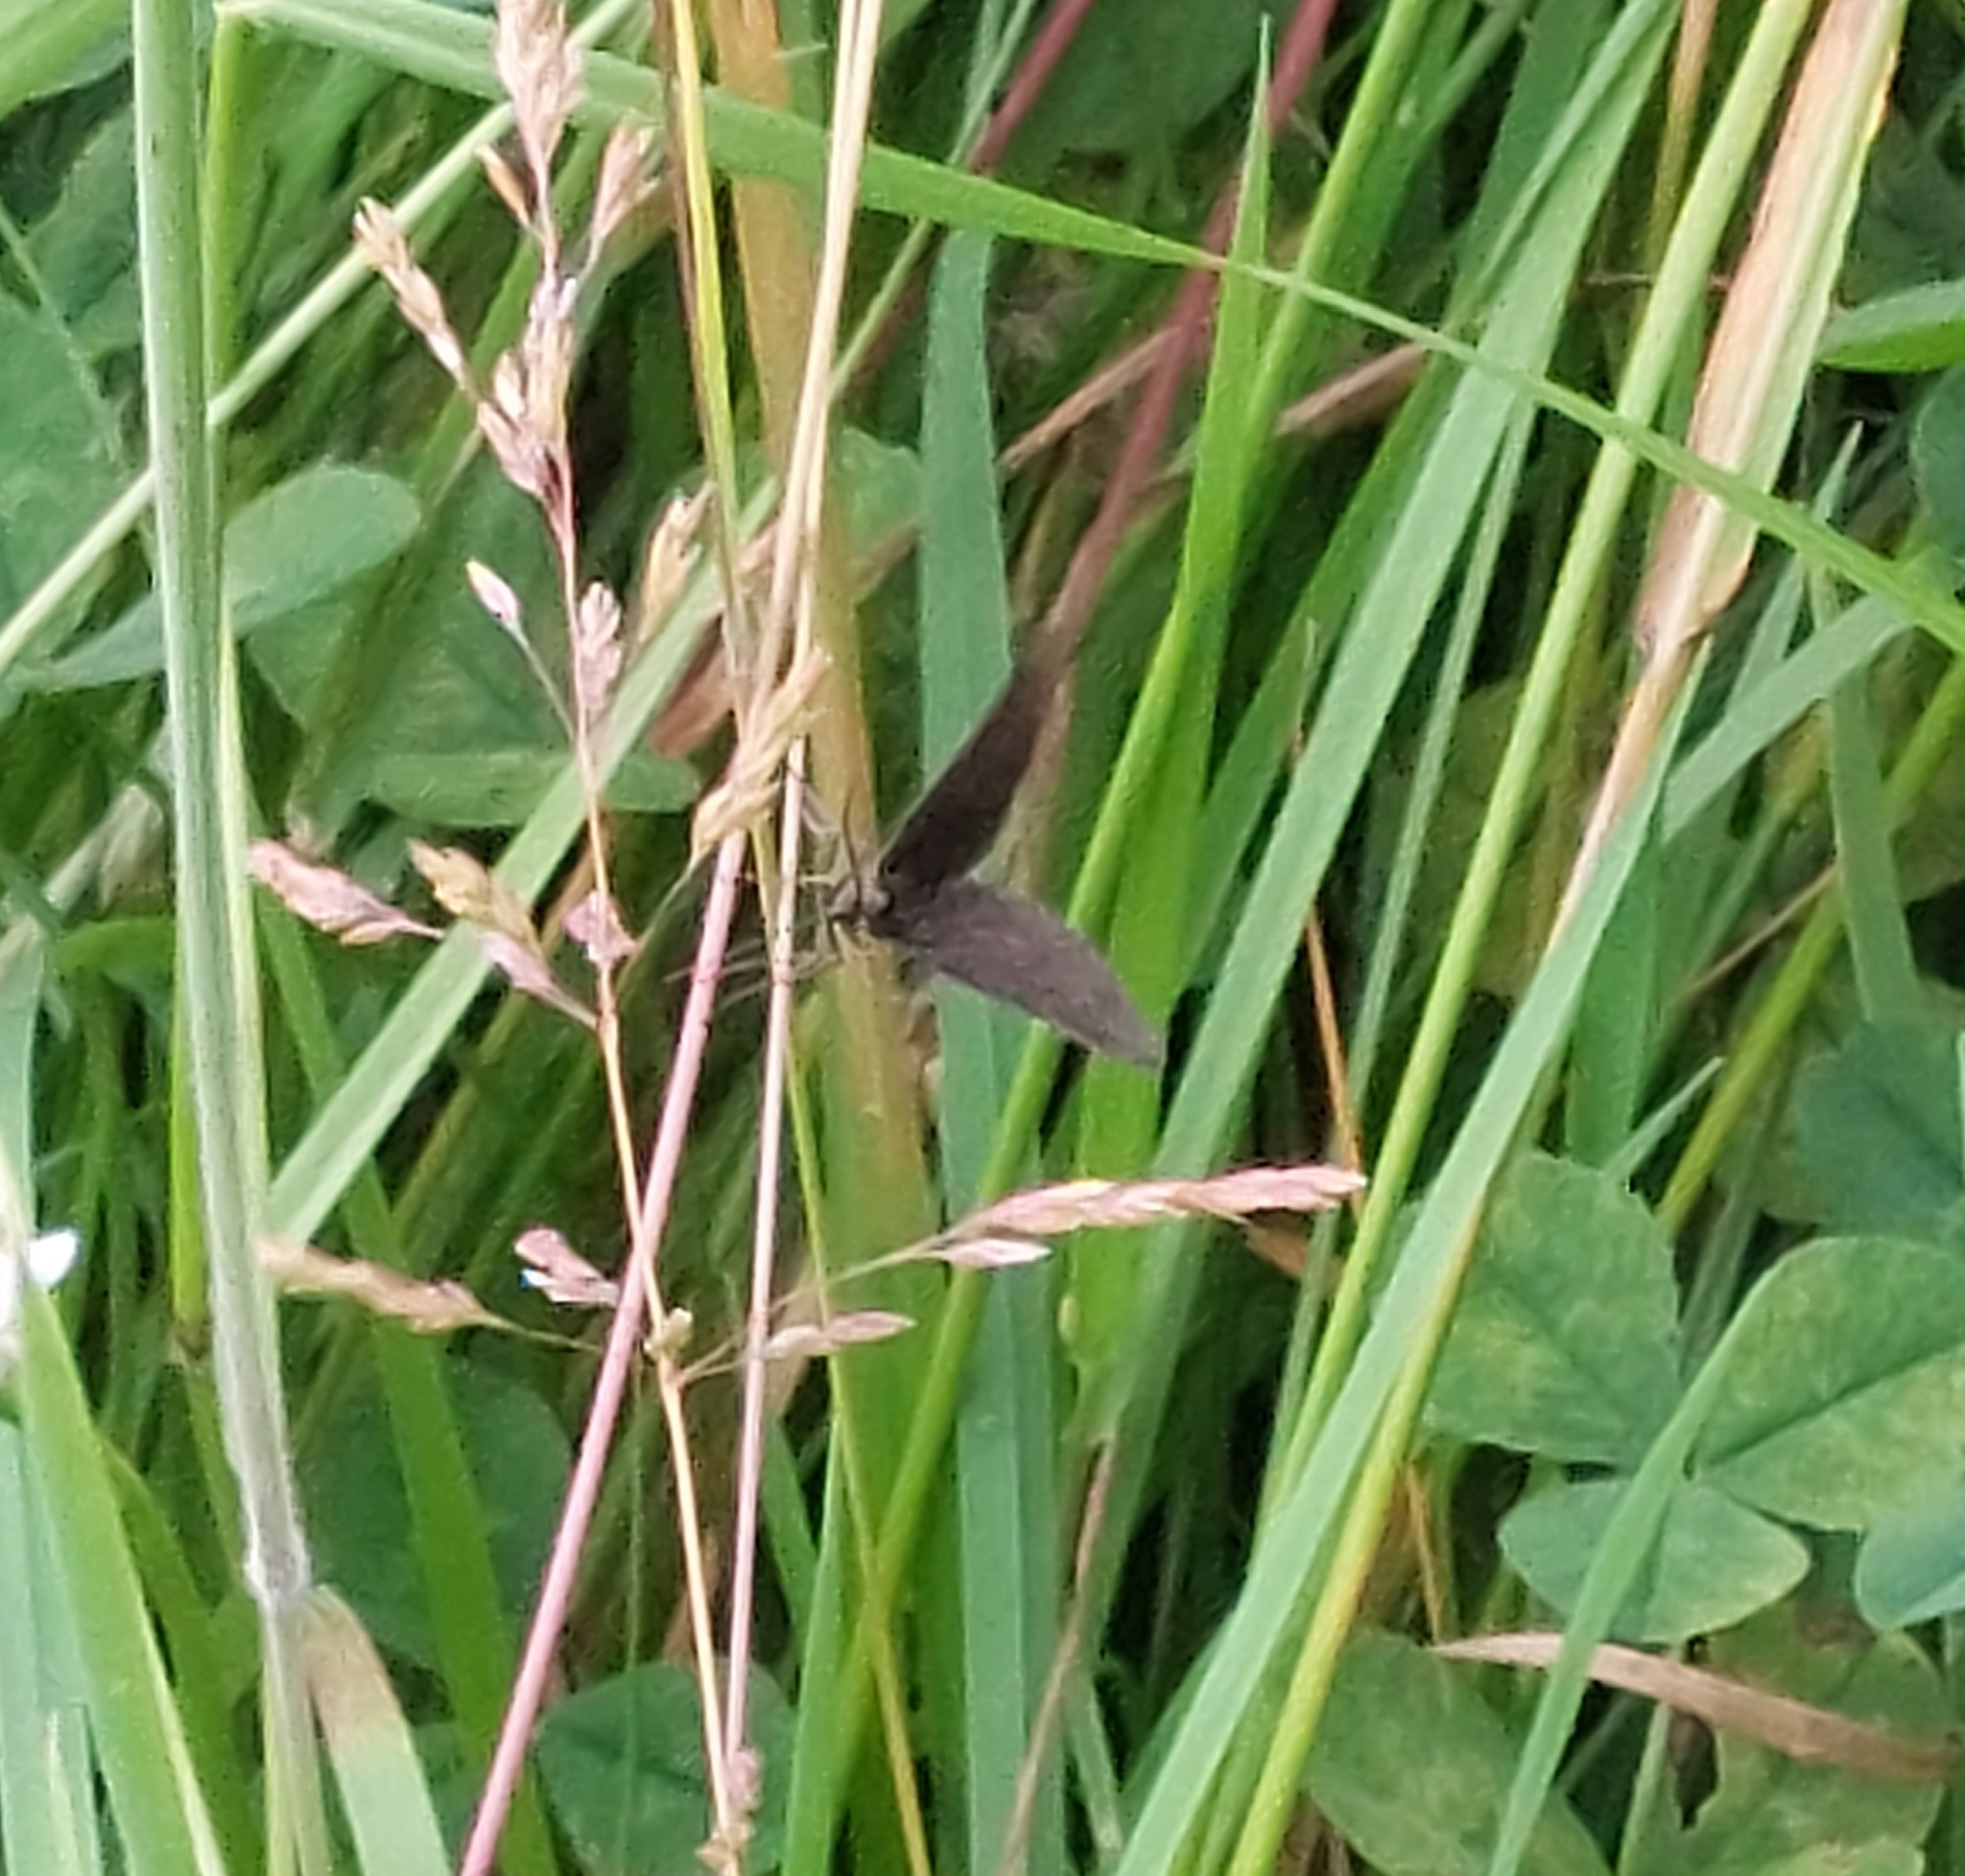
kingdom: Animalia
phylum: Arthropoda
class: Insecta
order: Lepidoptera
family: Geometridae
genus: Odezia
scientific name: Odezia atrata
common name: Chimney sweeper
